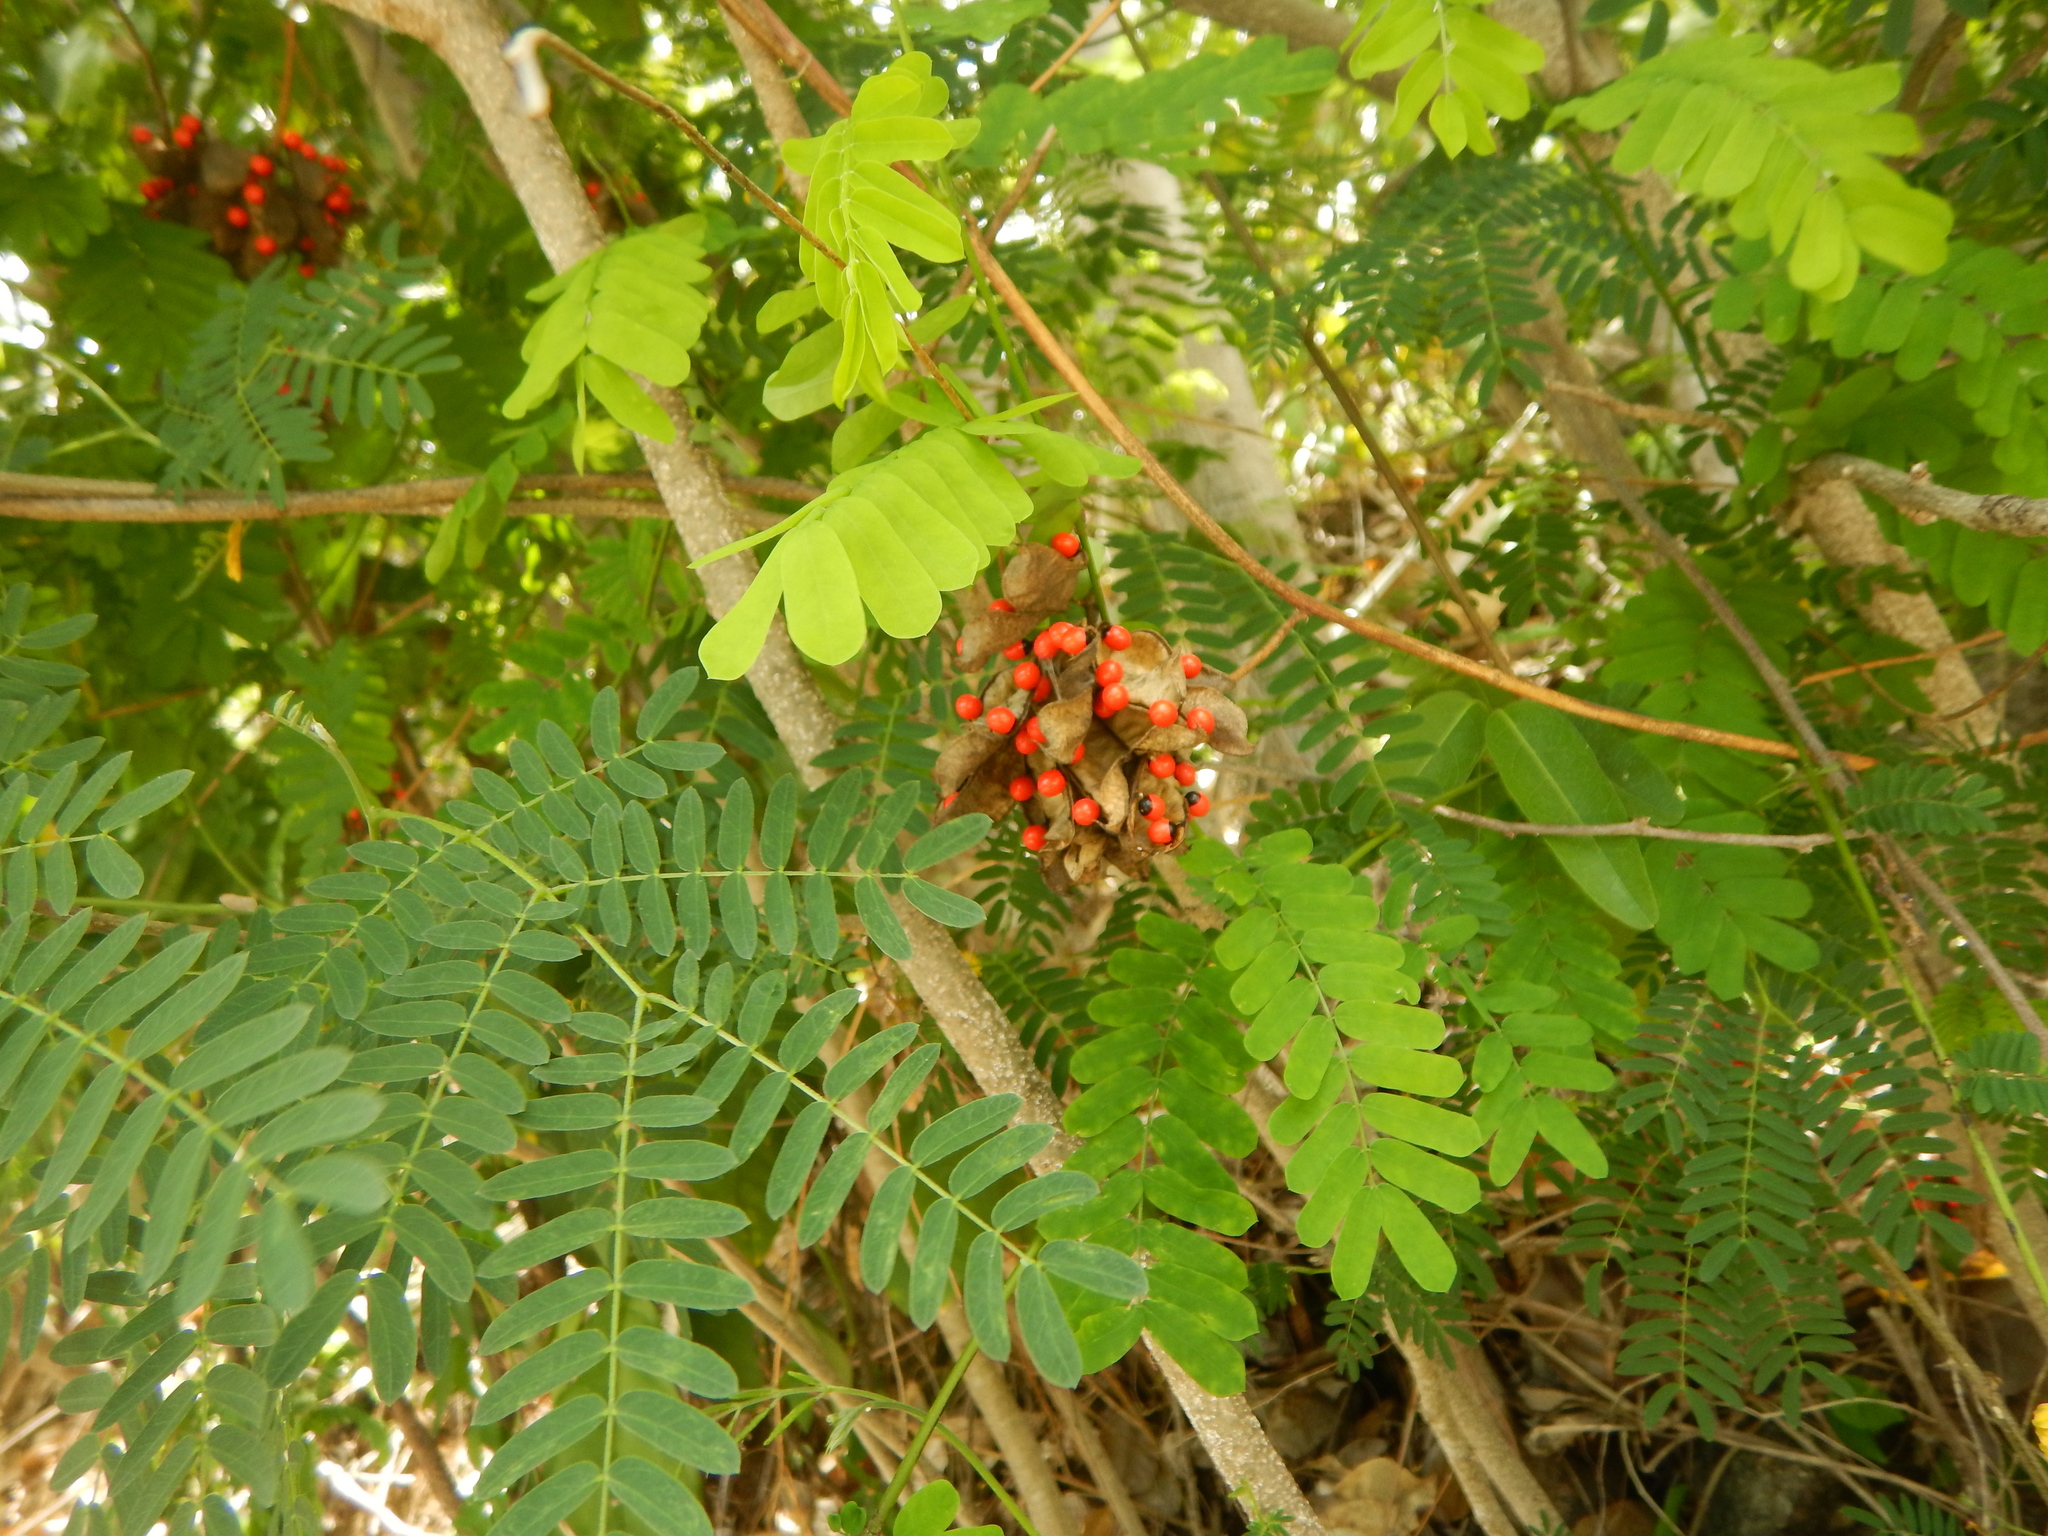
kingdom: Plantae
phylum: Tracheophyta
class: Magnoliopsida
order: Fabales
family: Fabaceae
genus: Abrus
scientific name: Abrus precatorius
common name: Rosarypea
